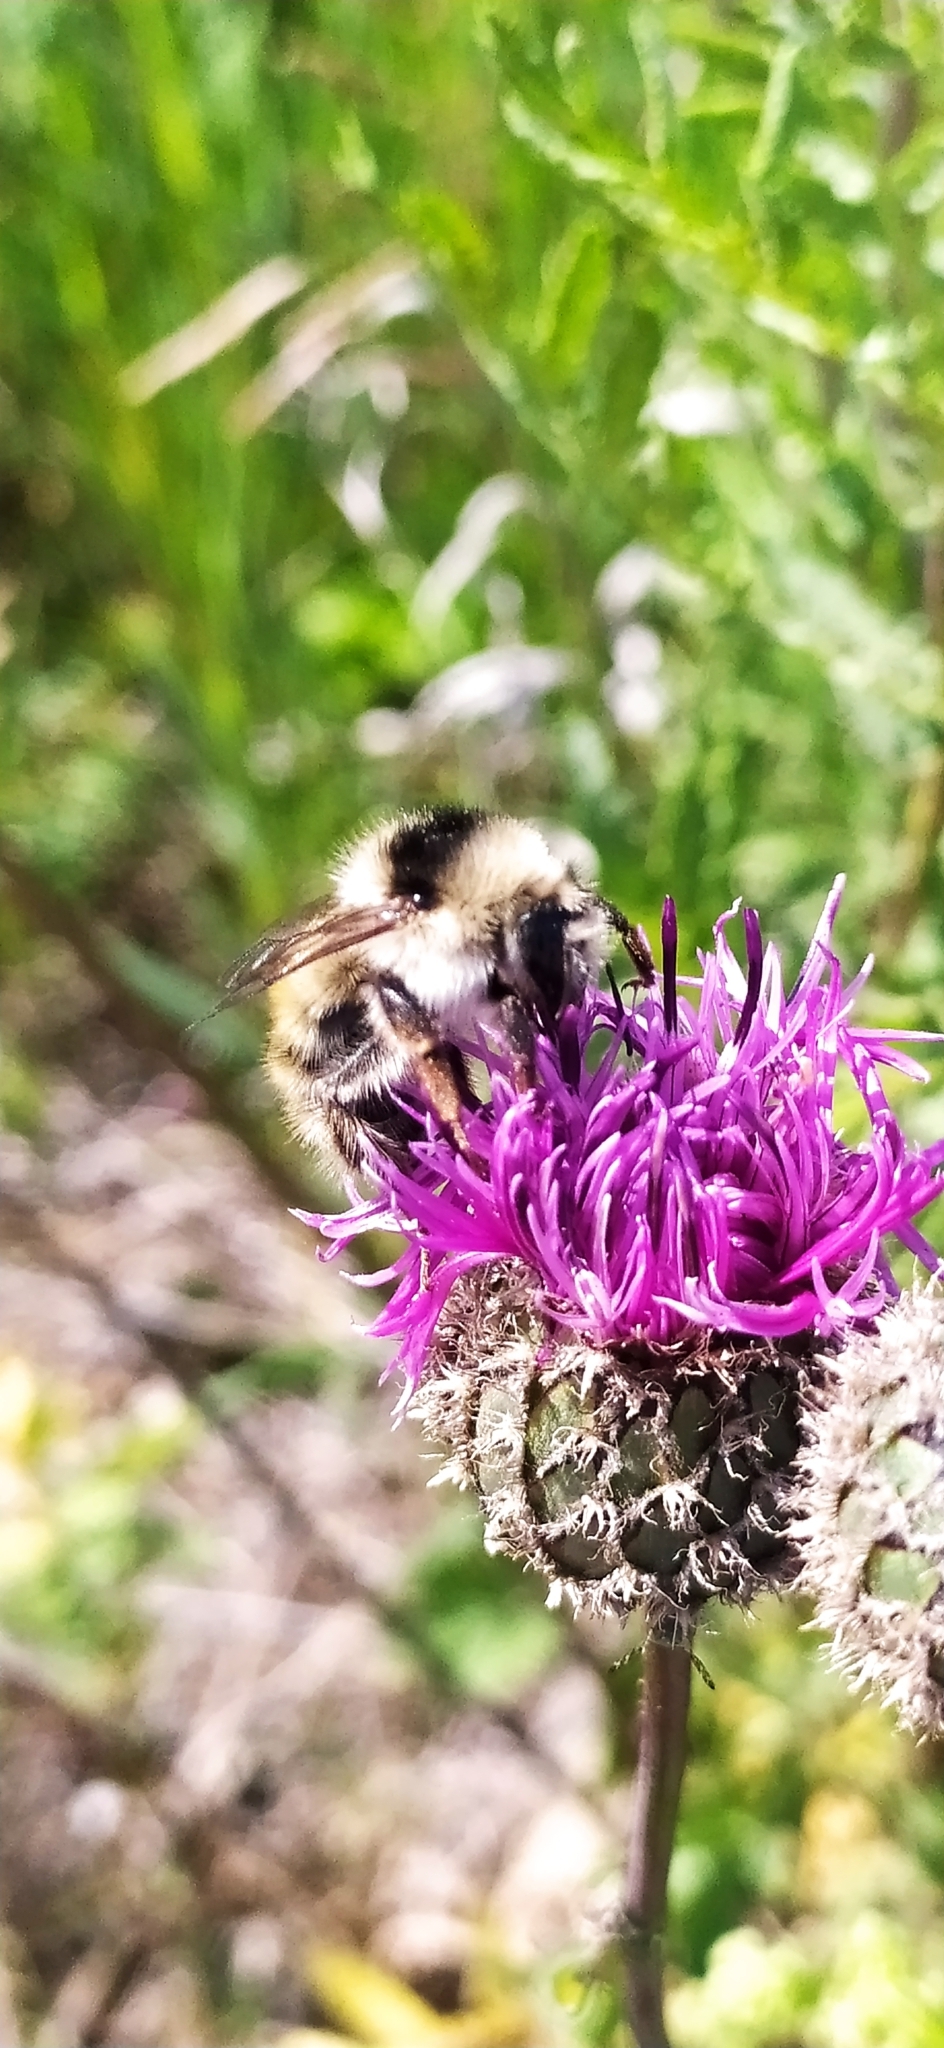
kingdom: Animalia
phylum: Arthropoda
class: Insecta
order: Hymenoptera
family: Apidae
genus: Bombus
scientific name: Bombus veteranus
